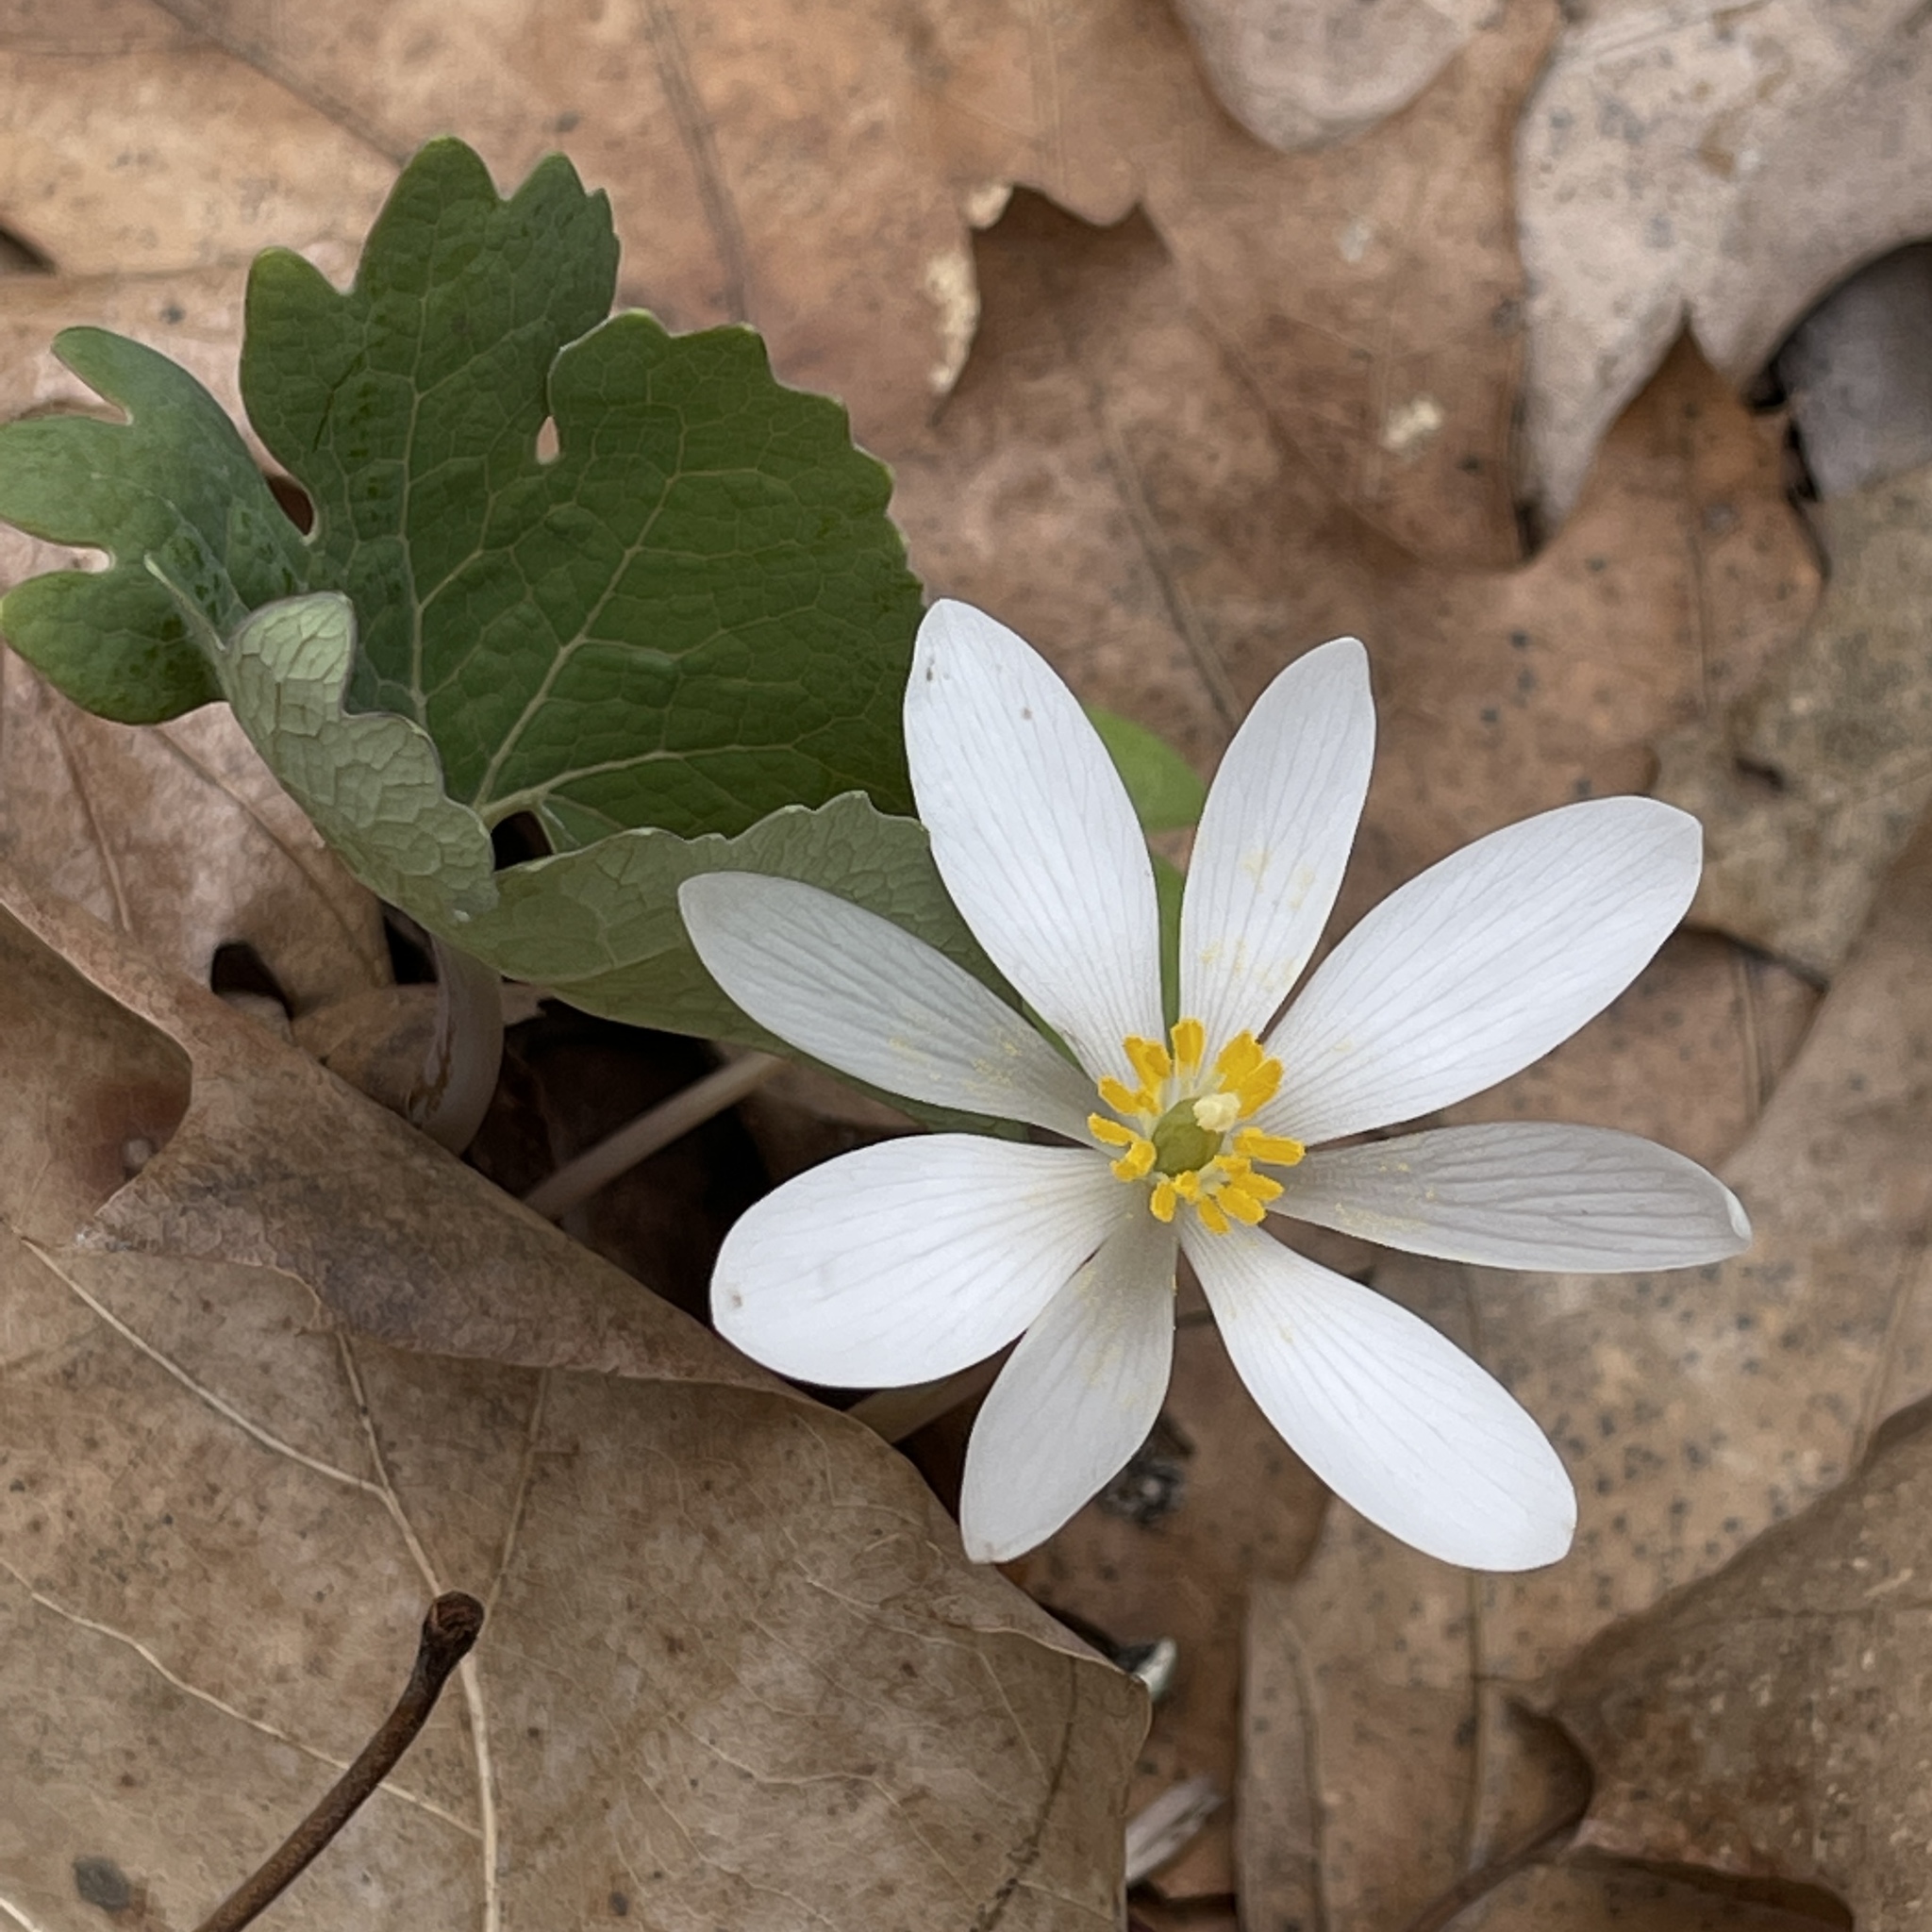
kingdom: Plantae
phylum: Tracheophyta
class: Magnoliopsida
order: Ranunculales
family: Papaveraceae
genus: Sanguinaria
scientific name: Sanguinaria canadensis
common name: Bloodroot
